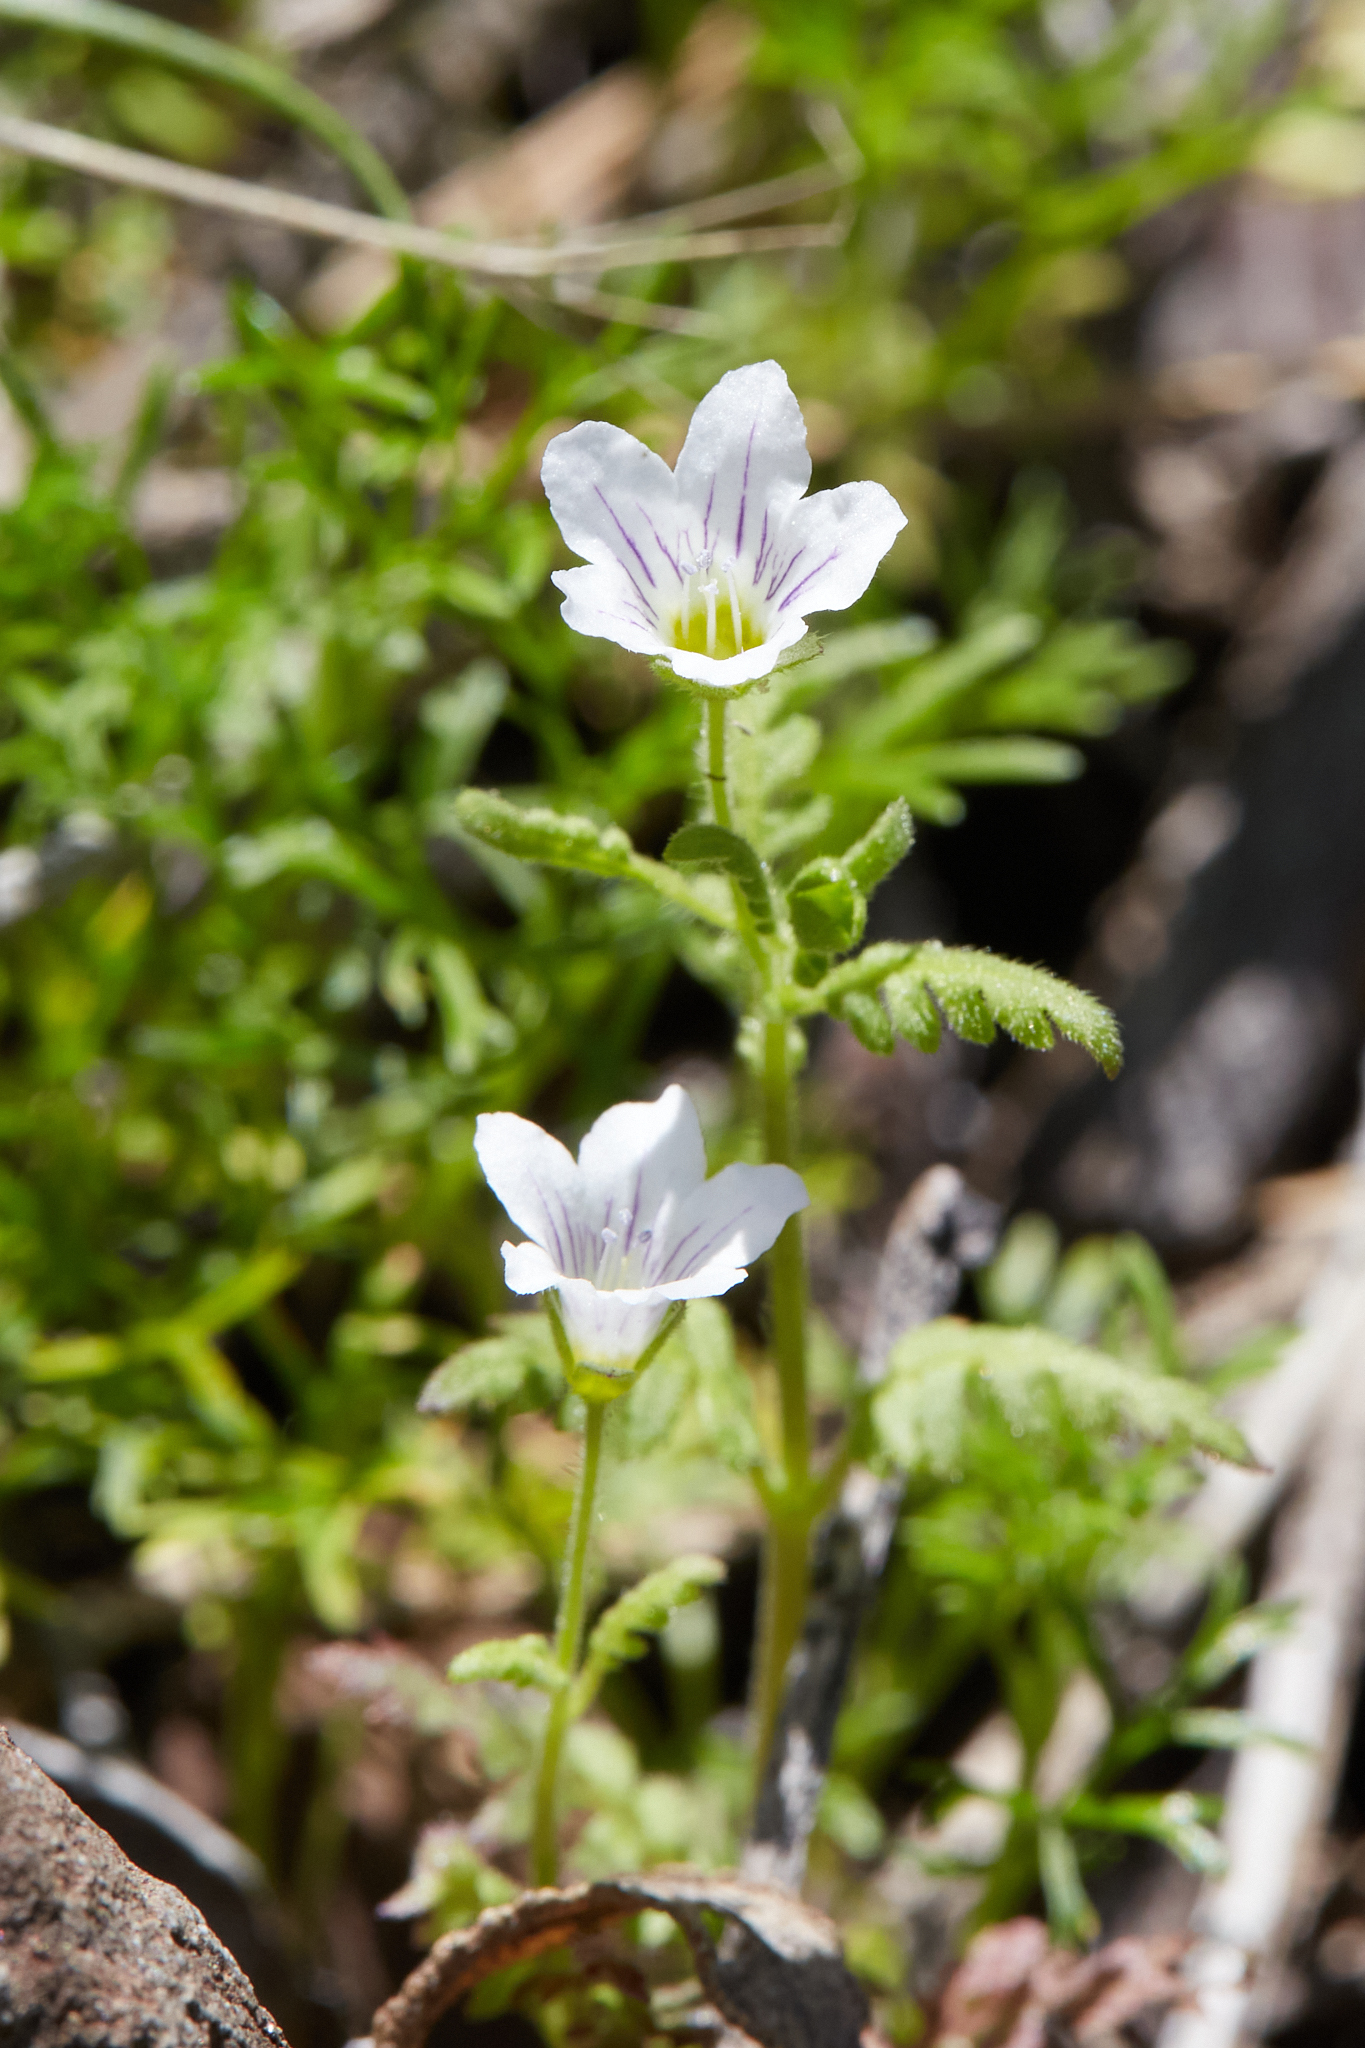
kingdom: Plantae
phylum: Tracheophyta
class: Magnoliopsida
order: Boraginales
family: Hydrophyllaceae
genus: Eucrypta
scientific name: Eucrypta chrysanthemifolia
